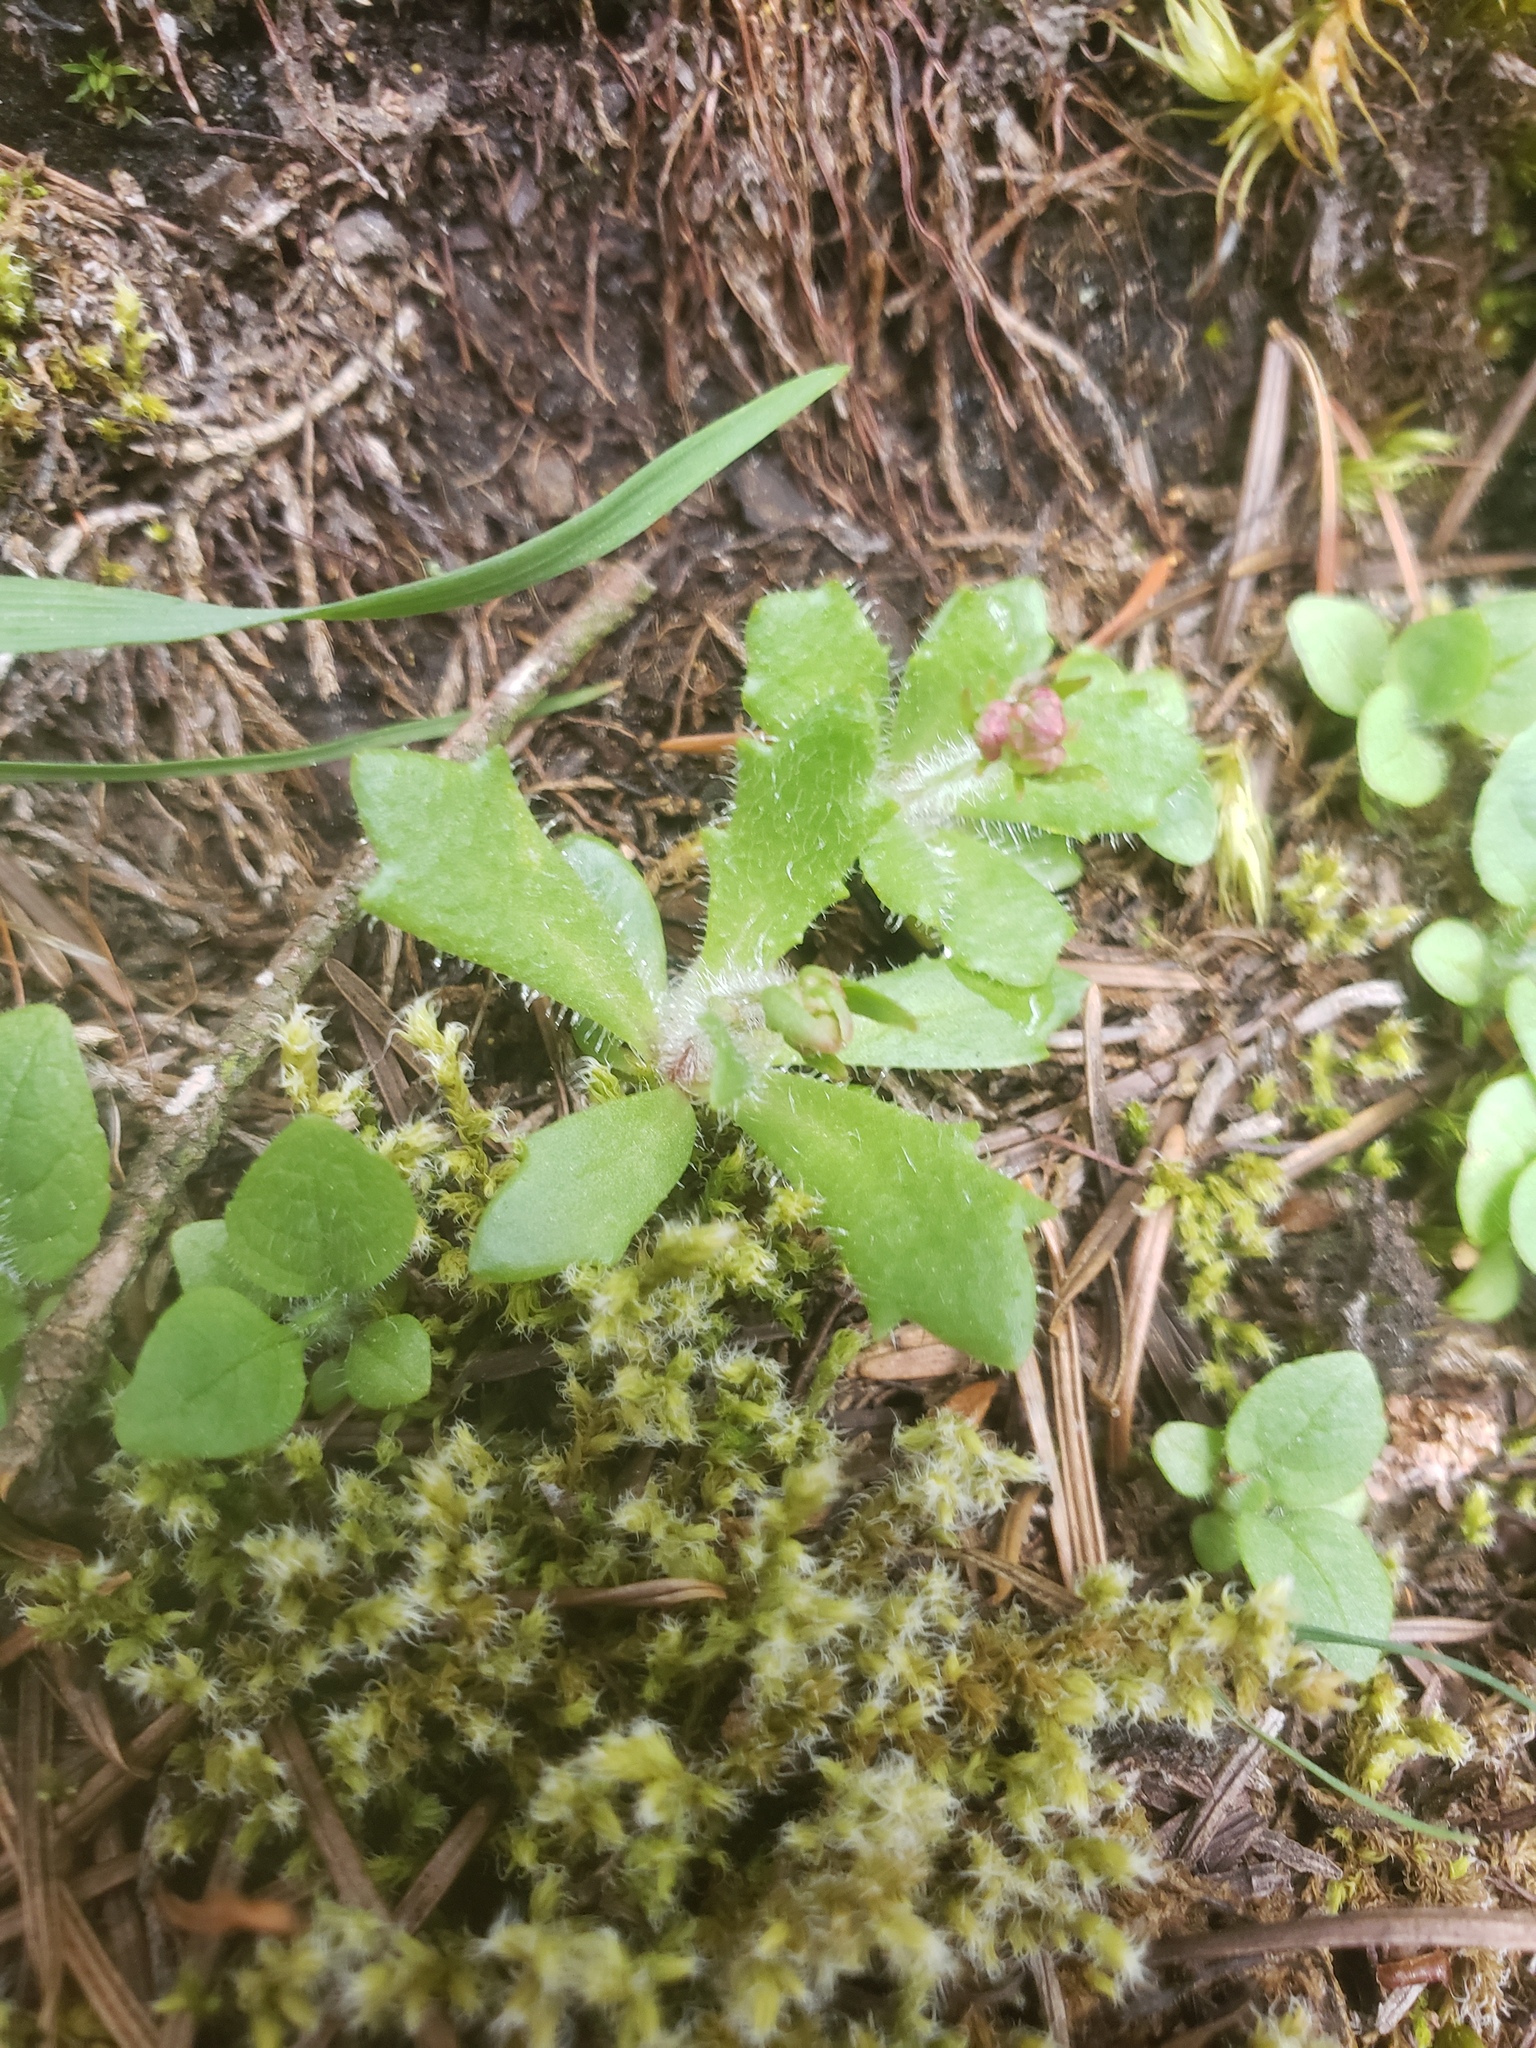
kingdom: Plantae
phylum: Tracheophyta
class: Magnoliopsida
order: Saxifragales
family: Saxifragaceae
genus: Micranthes
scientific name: Micranthes ferruginea
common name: Rusty saxifrage
